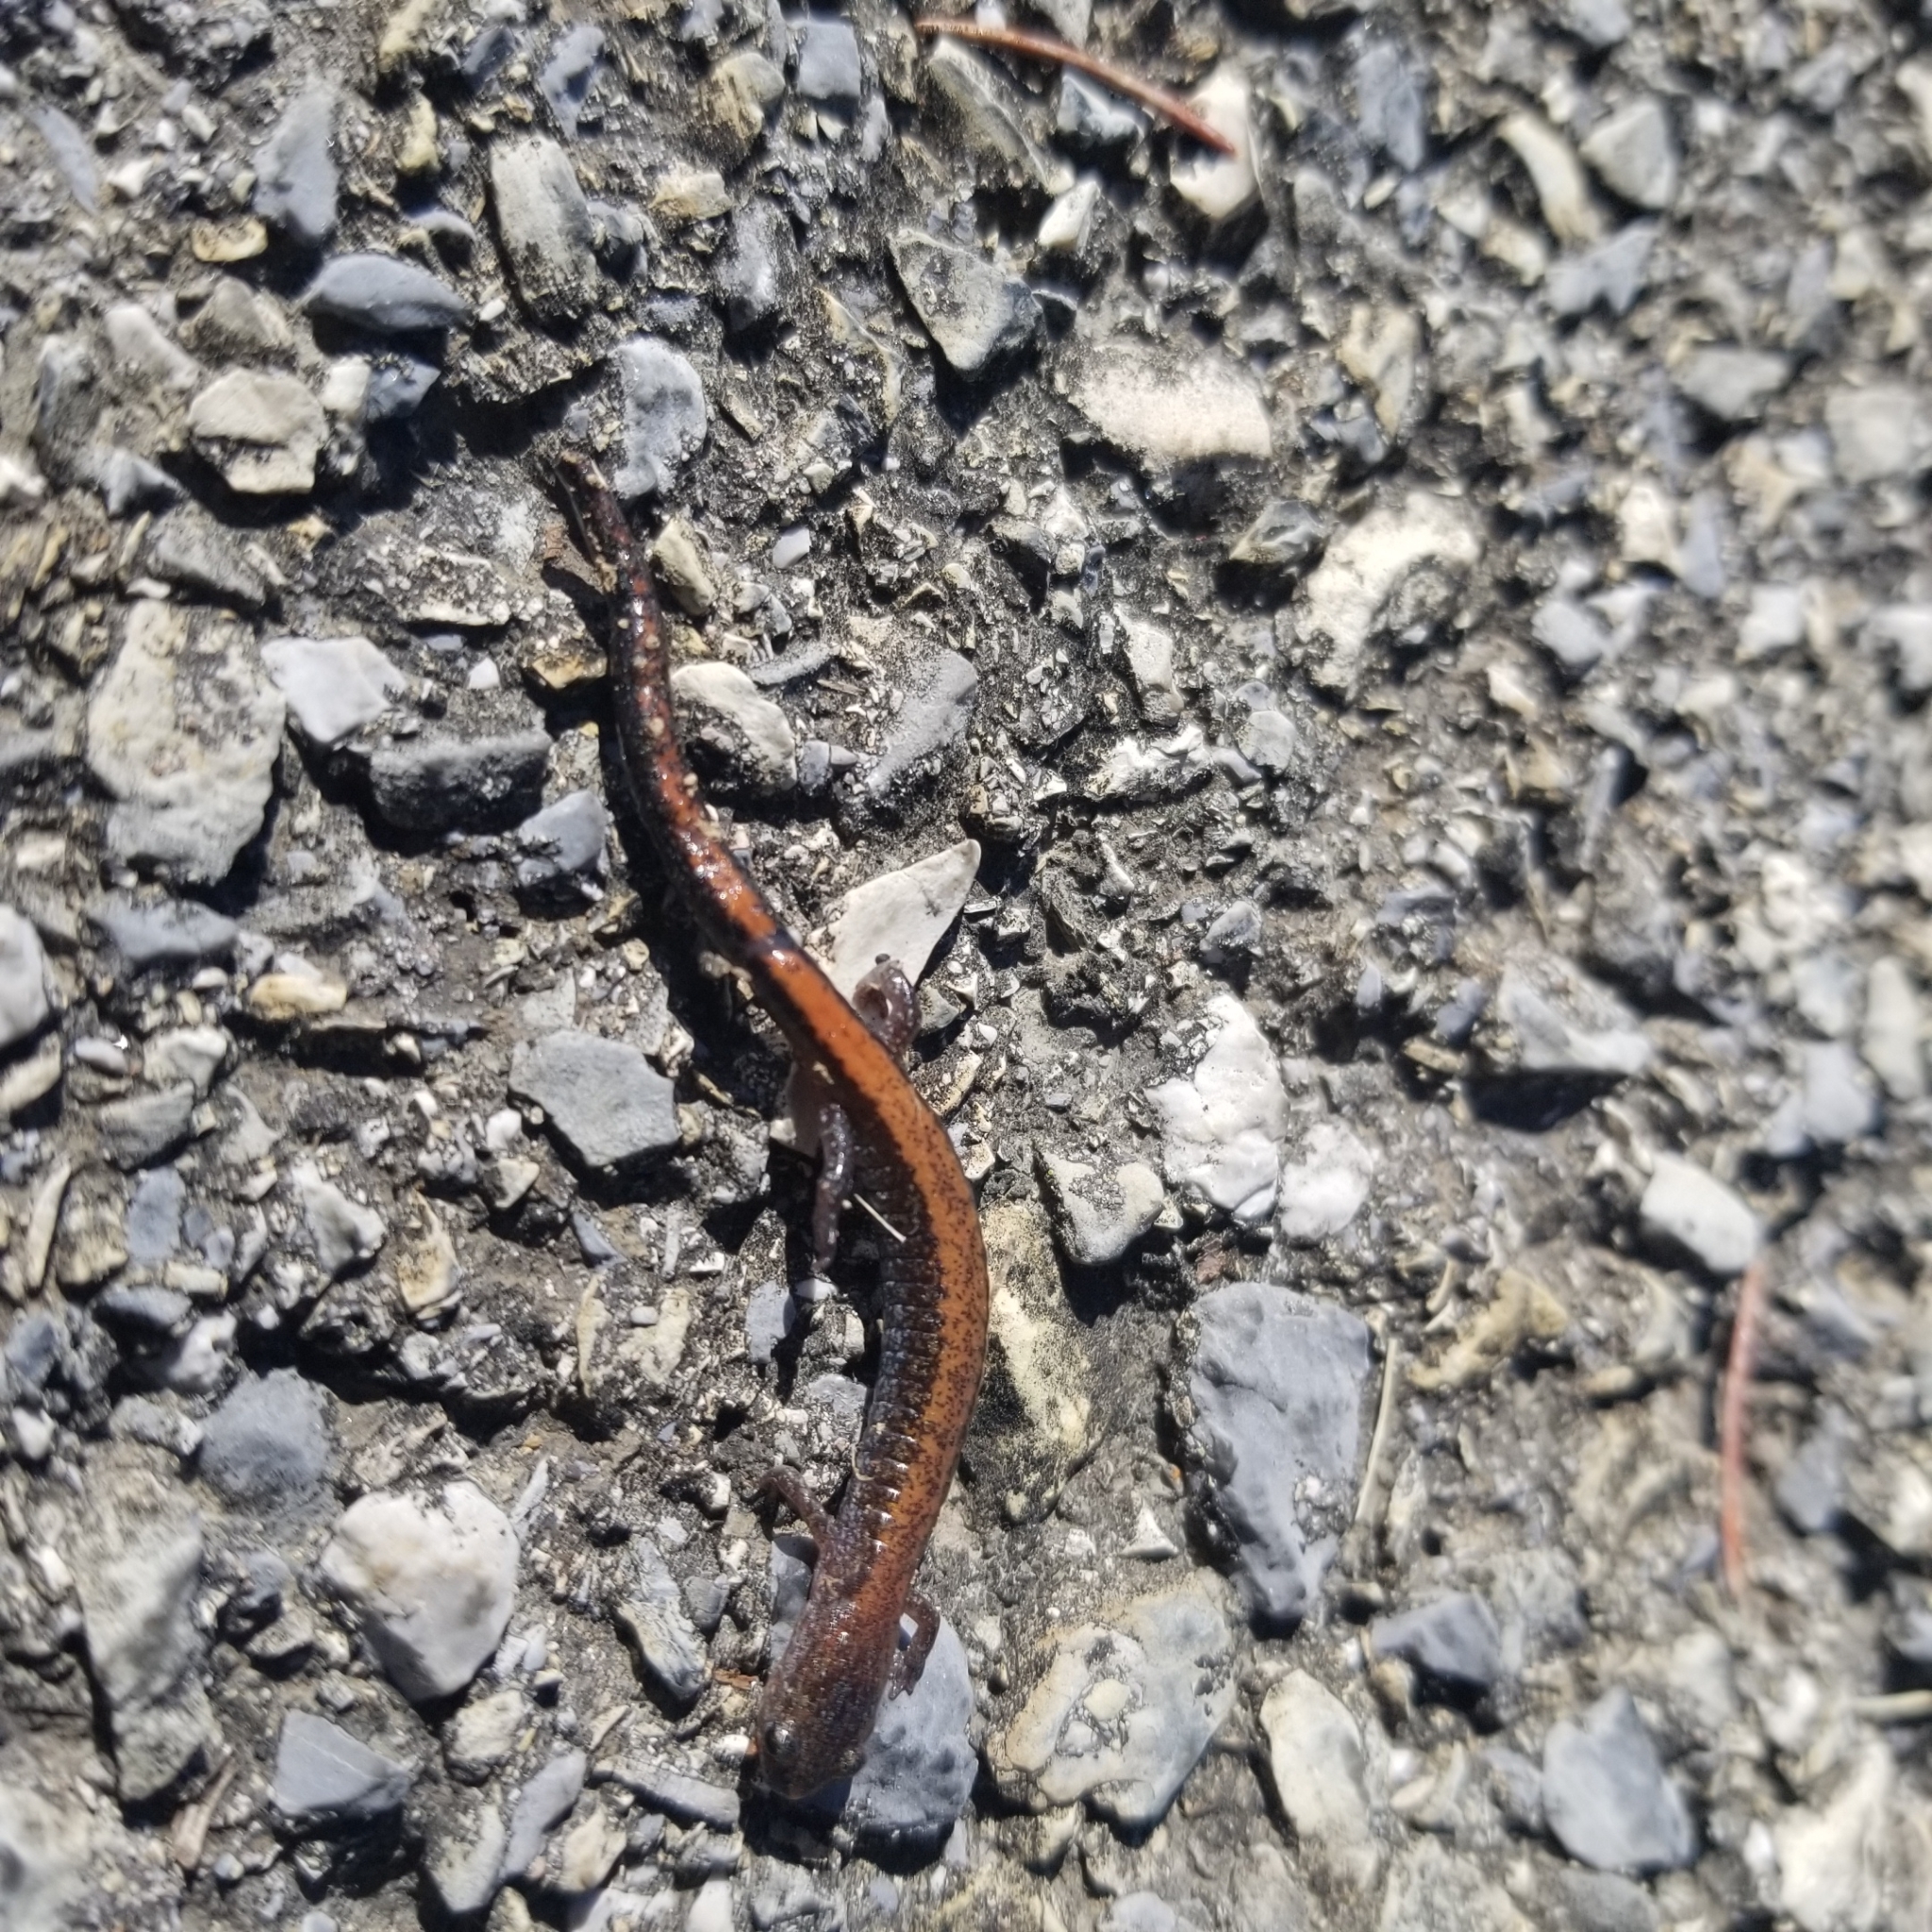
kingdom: Animalia
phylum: Chordata
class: Amphibia
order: Caudata
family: Plethodontidae
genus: Plethodon
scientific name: Plethodon cinereus
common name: Redback salamander
